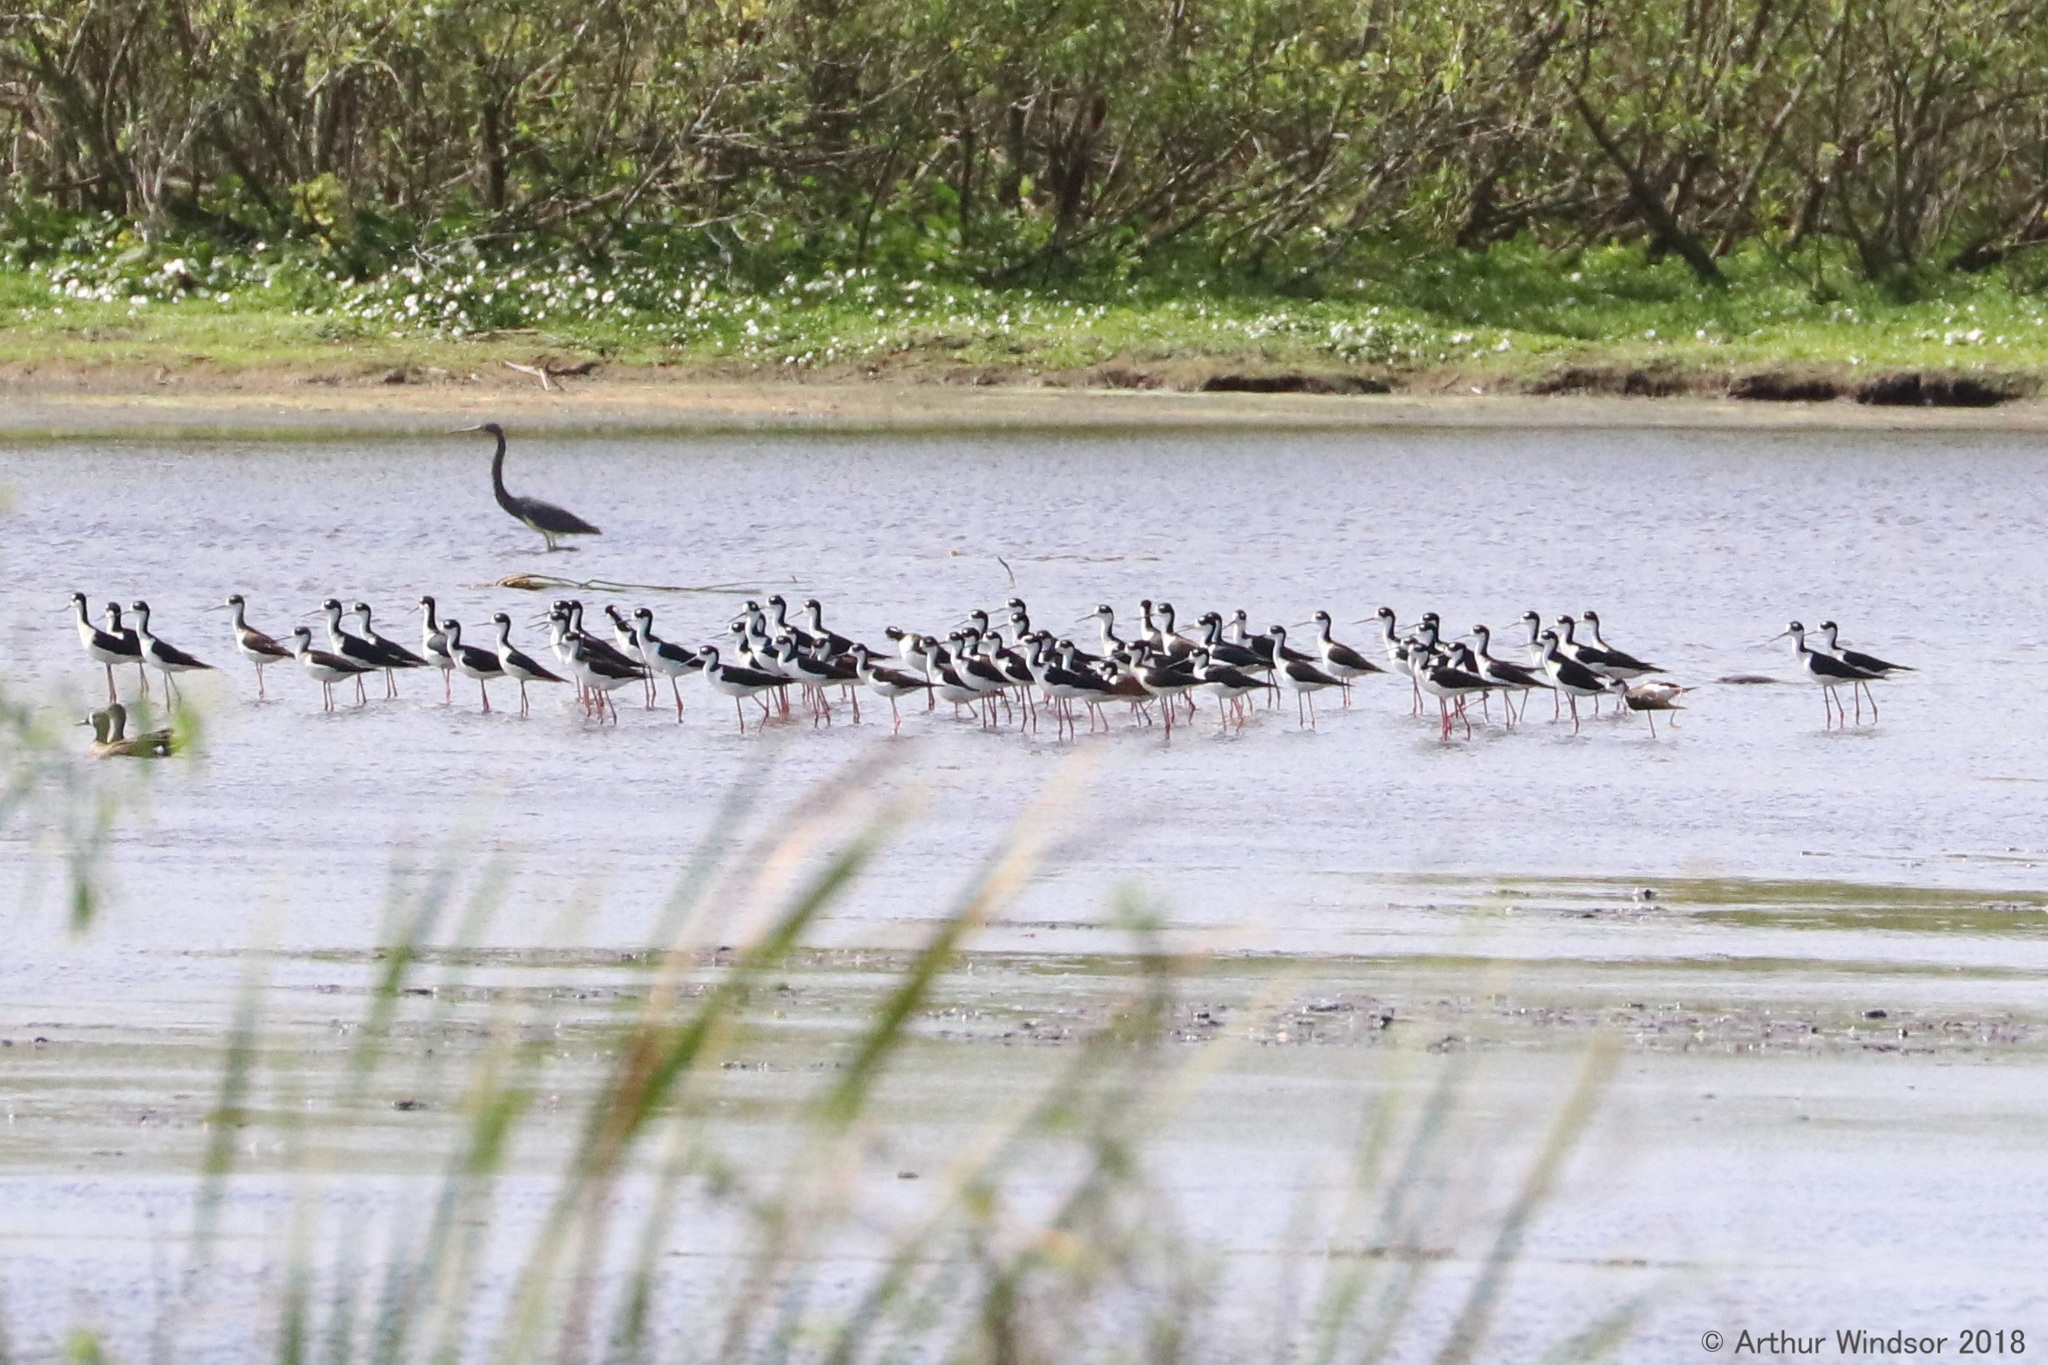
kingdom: Animalia
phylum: Chordata
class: Aves
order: Charadriiformes
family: Recurvirostridae
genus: Himantopus
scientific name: Himantopus mexicanus
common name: Black-necked stilt
